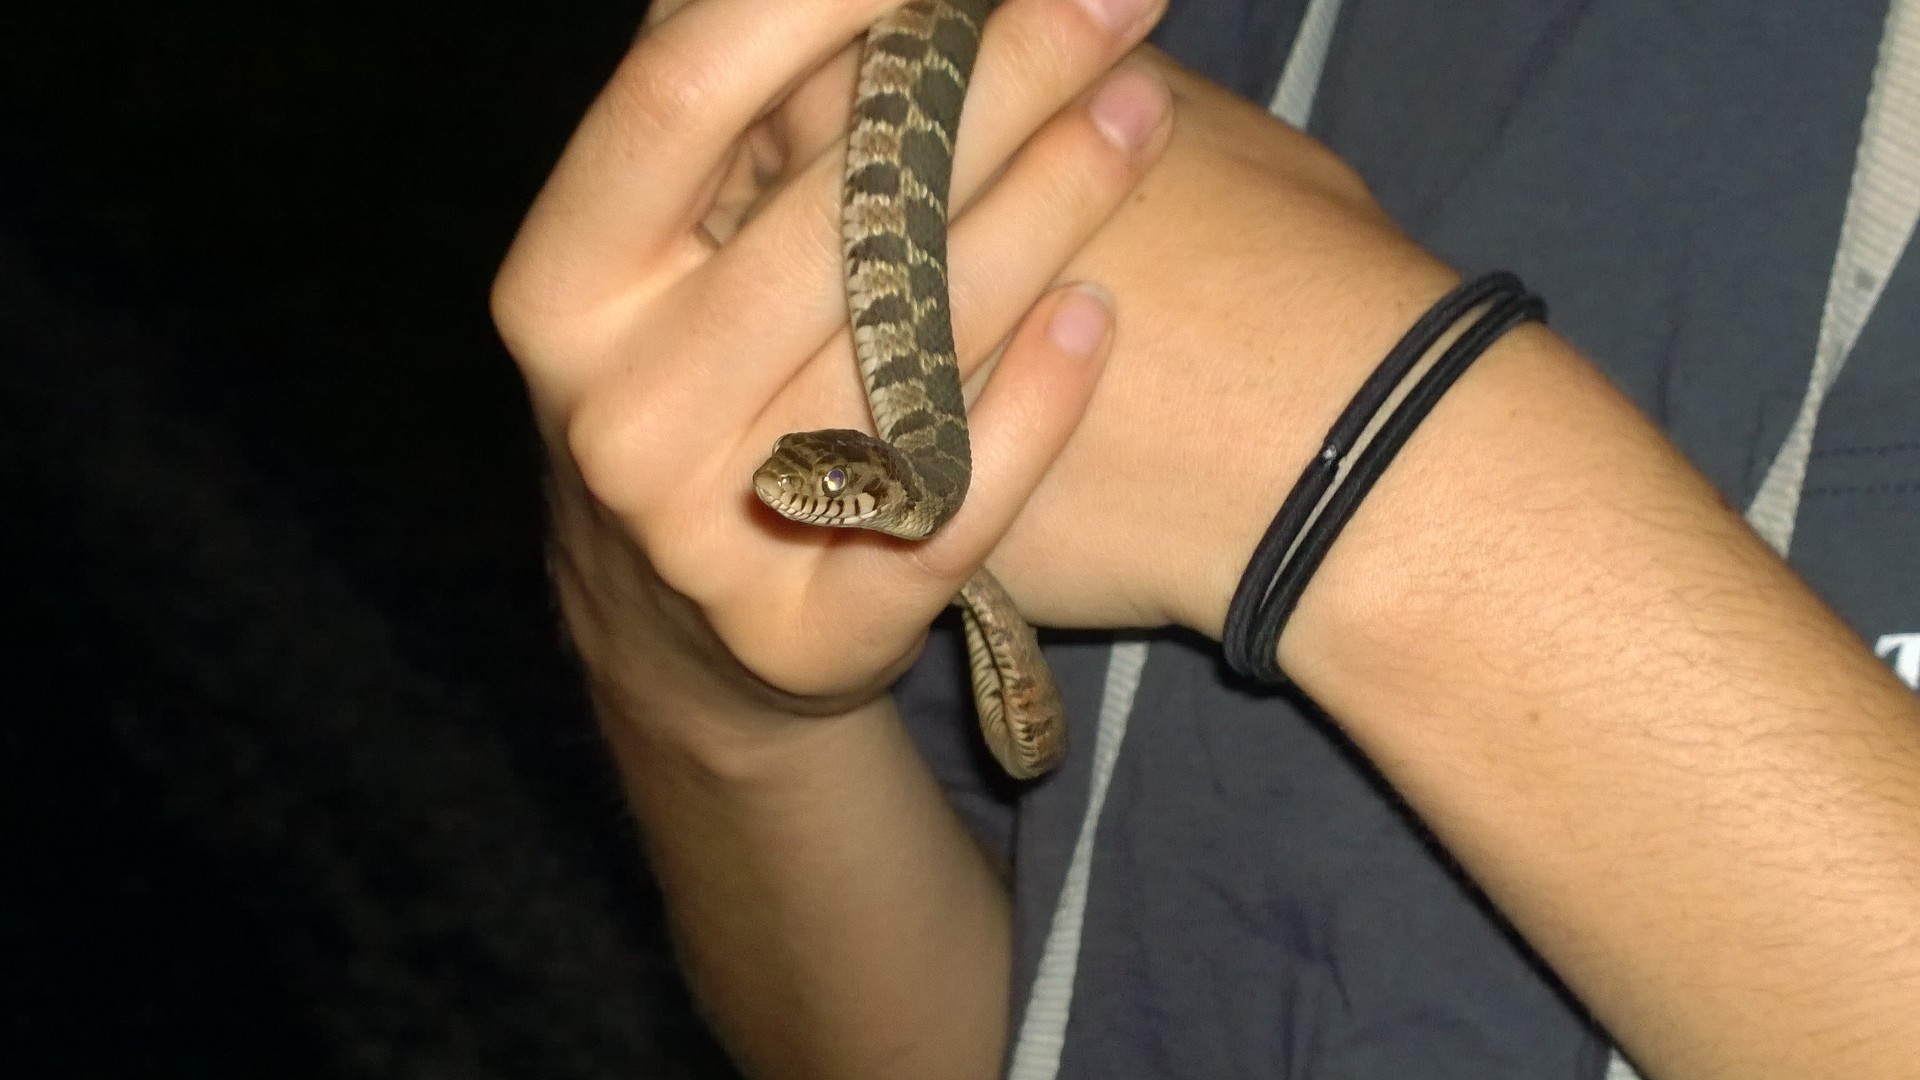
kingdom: Animalia
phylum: Chordata
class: Squamata
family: Colubridae
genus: Nerodia
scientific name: Nerodia erythrogaster
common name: Plainbelly water snake
